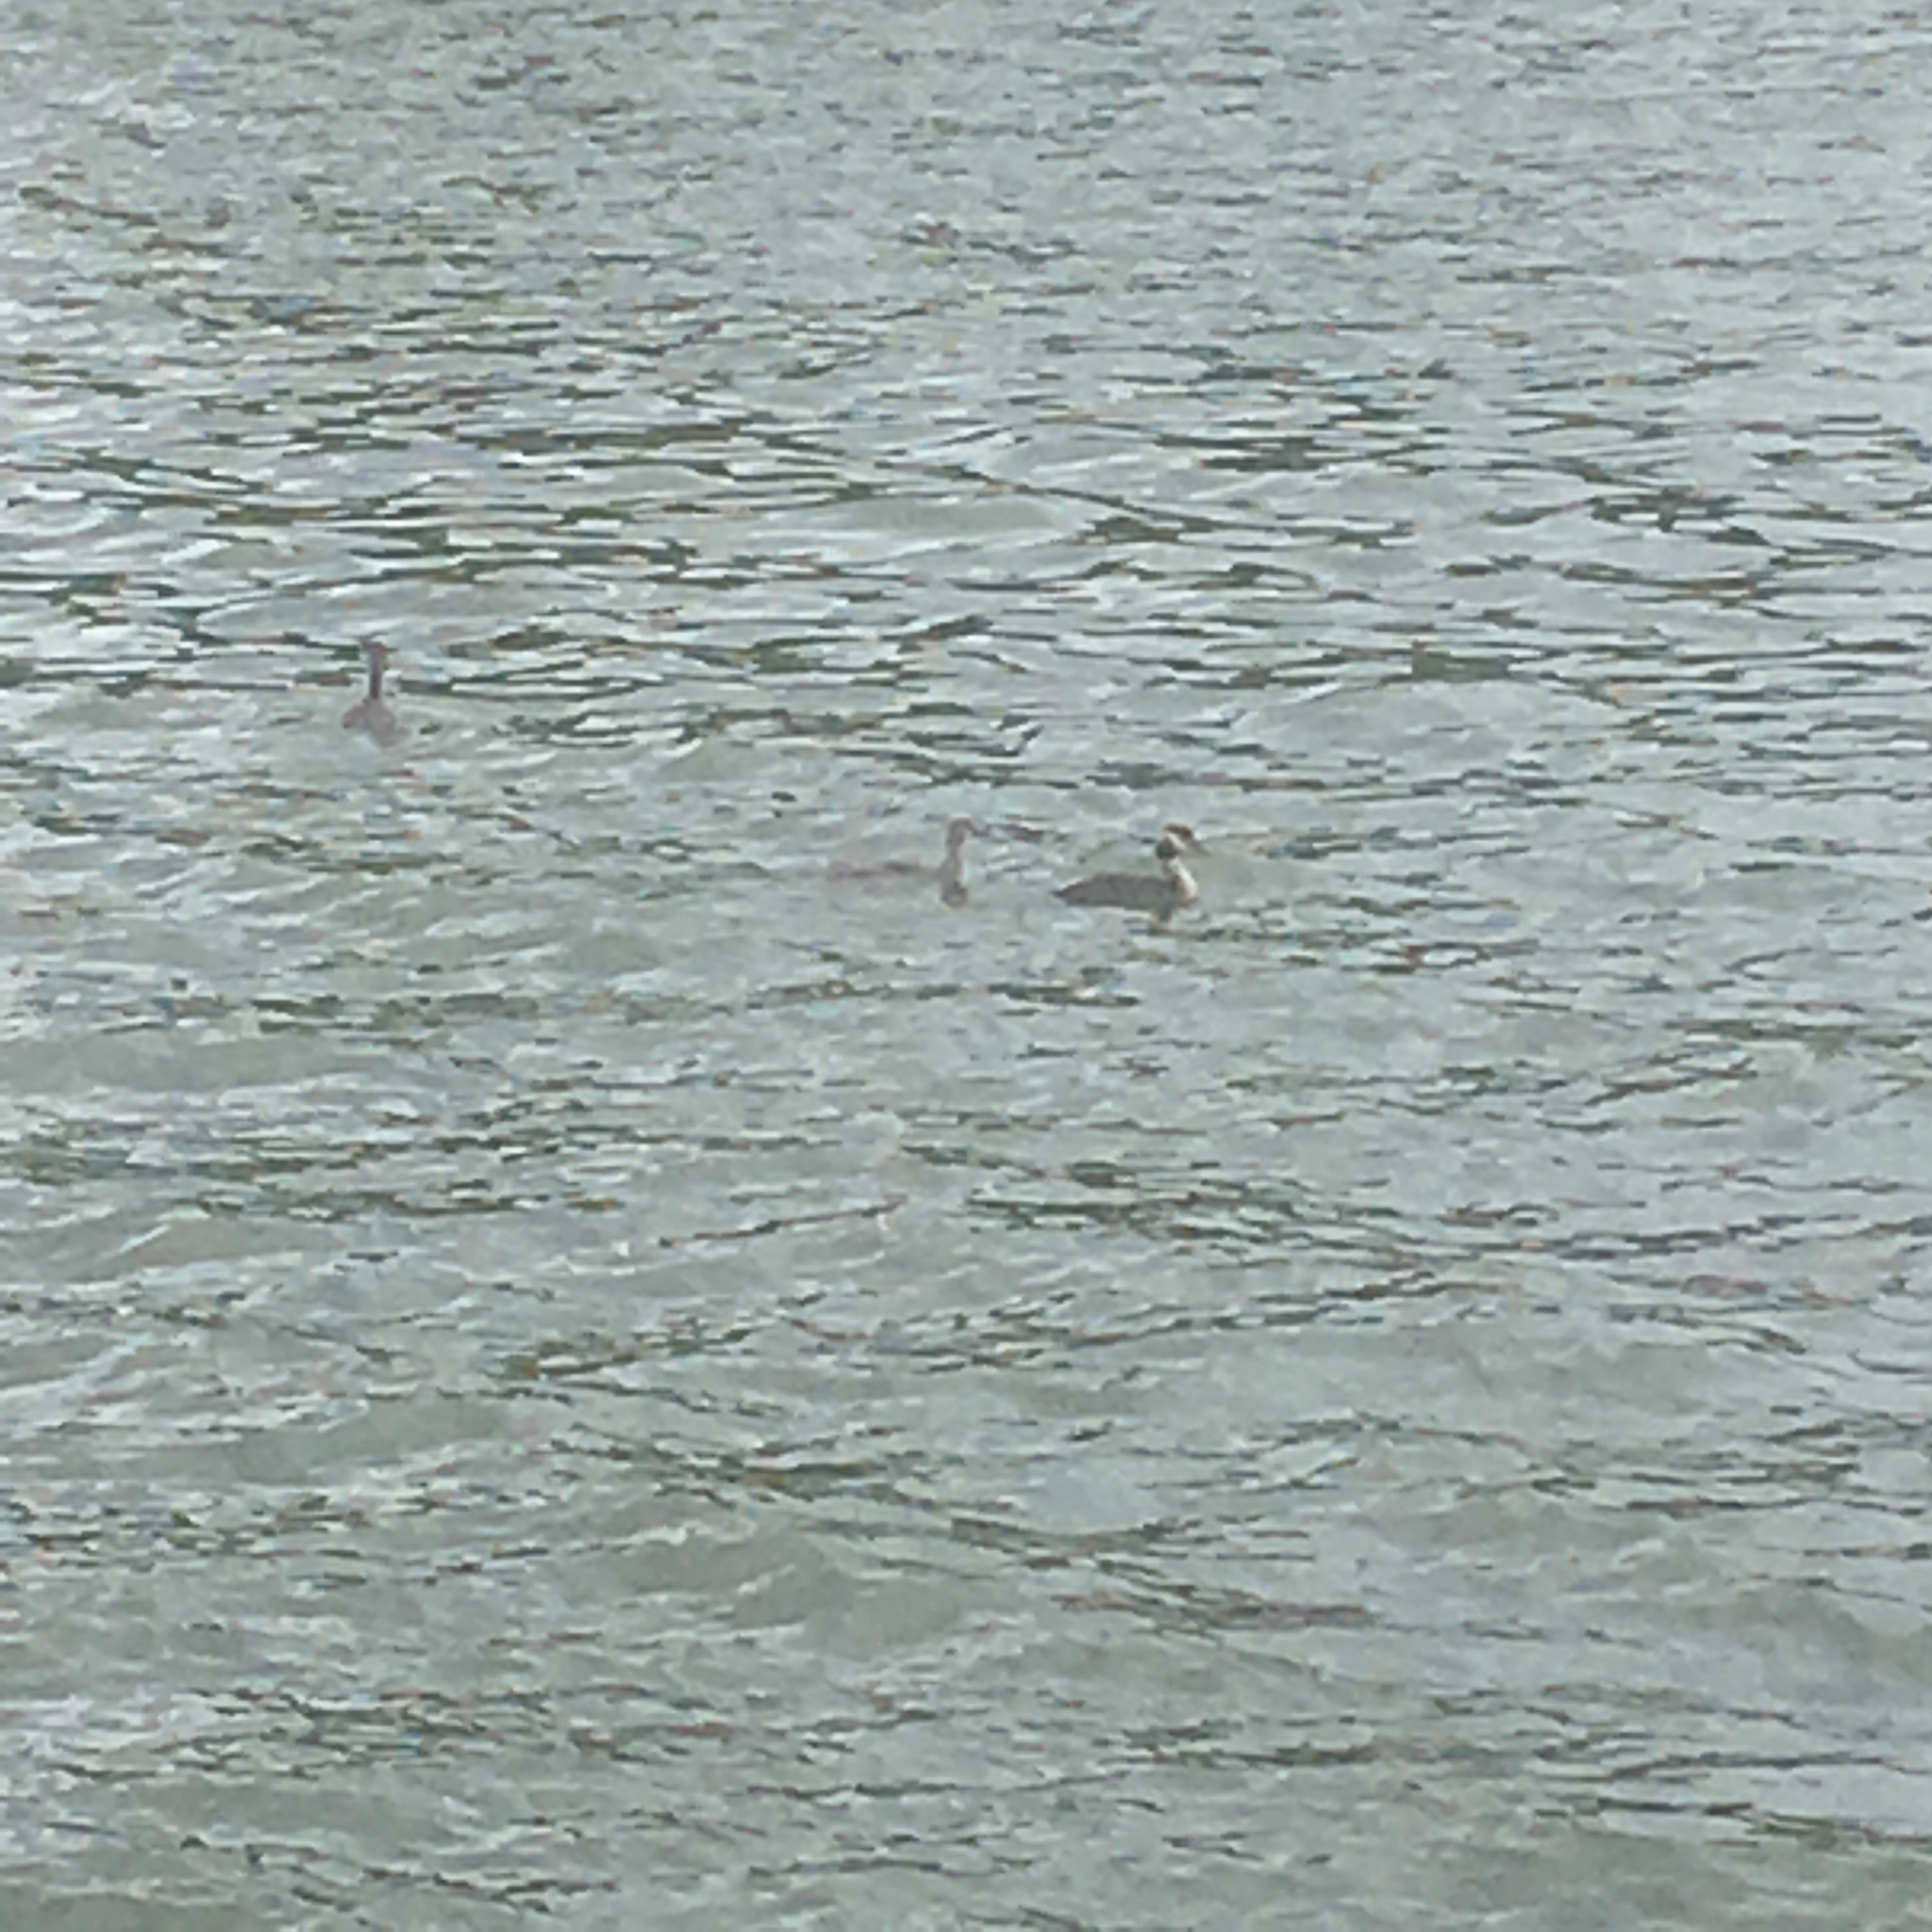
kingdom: Animalia
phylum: Chordata
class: Aves
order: Podicipediformes
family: Podicipedidae
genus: Podiceps
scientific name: Podiceps cristatus
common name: Great crested grebe
